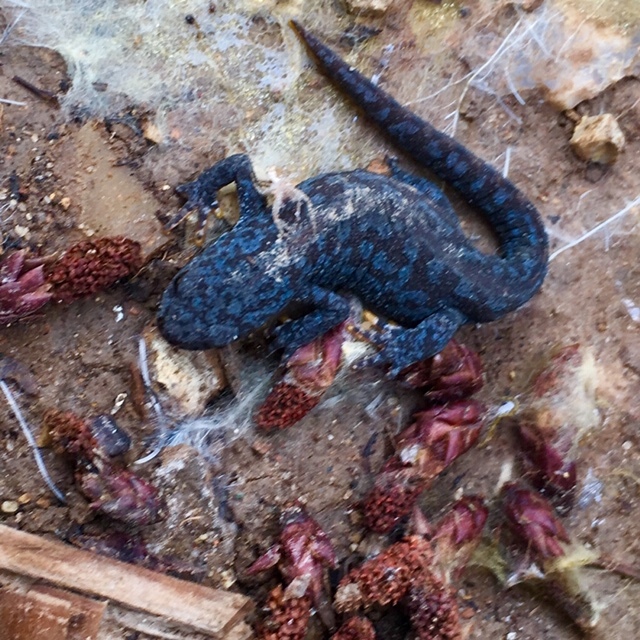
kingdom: Animalia
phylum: Chordata
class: Amphibia
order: Caudata
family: Salamandridae
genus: Ichthyosaura
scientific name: Ichthyosaura alpestris
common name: Alpine newt
